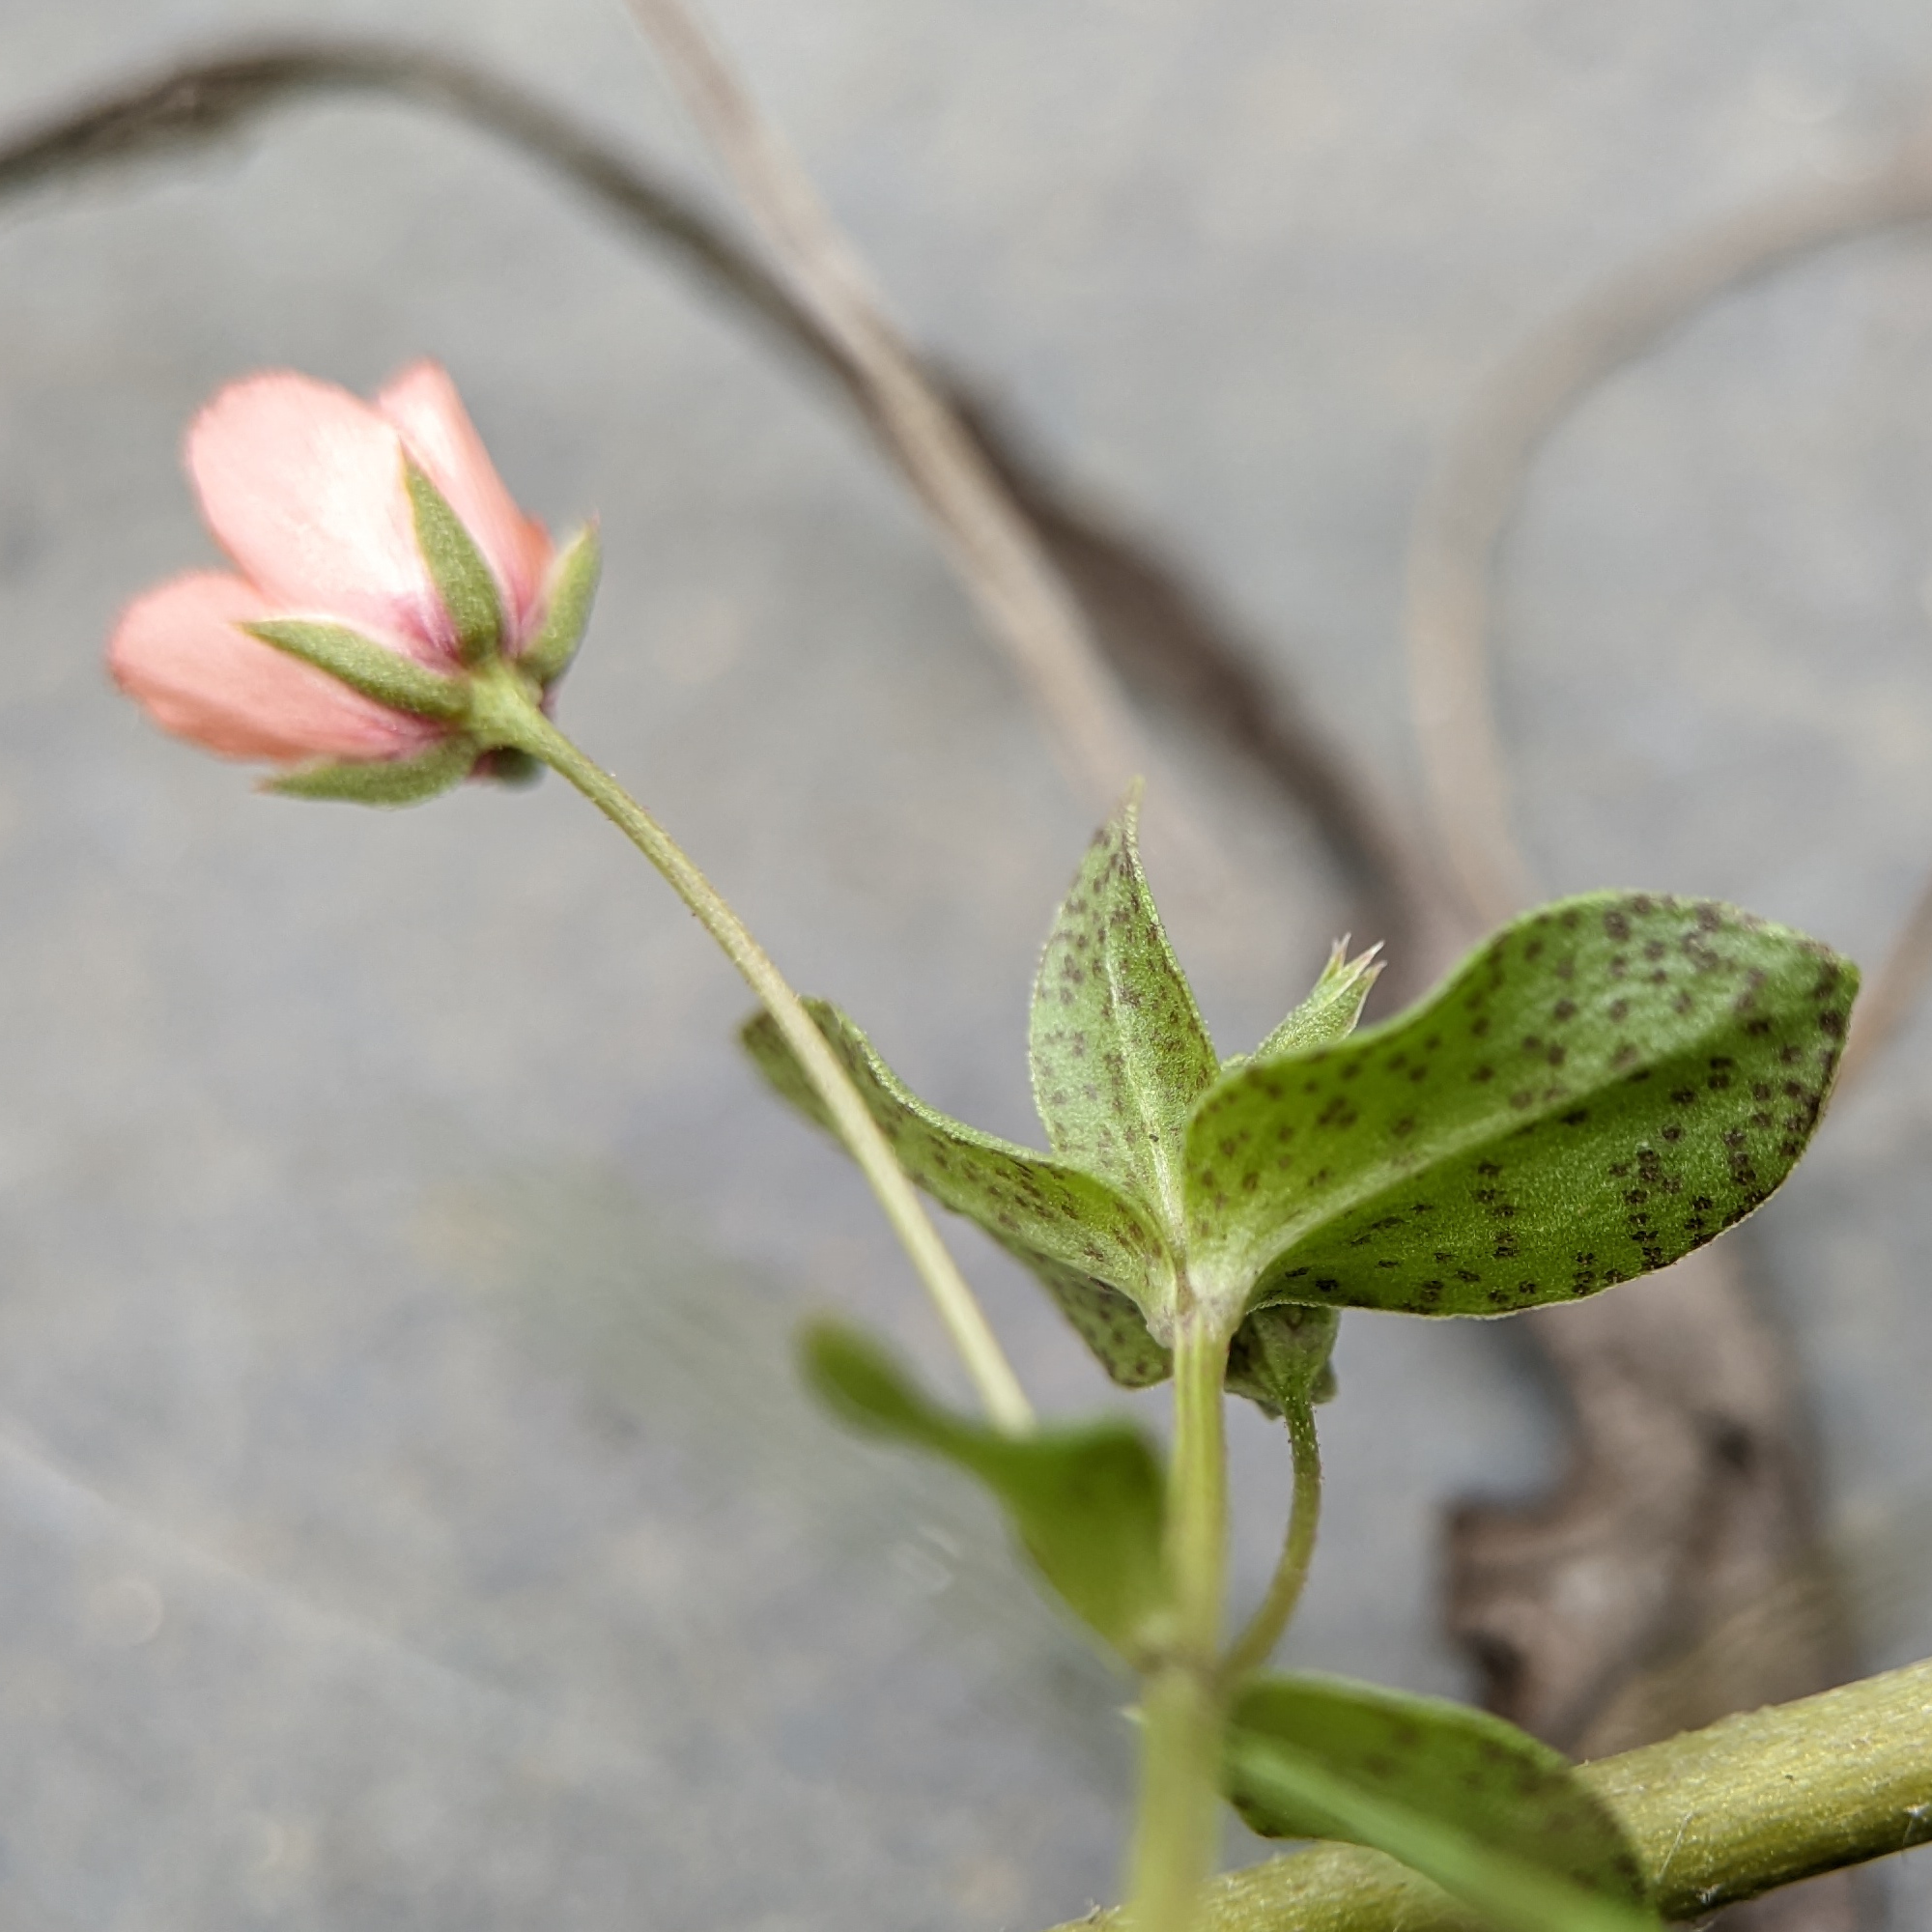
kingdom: Plantae
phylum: Tracheophyta
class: Magnoliopsida
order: Ericales
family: Primulaceae
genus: Lysimachia
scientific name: Lysimachia arvensis
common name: Scarlet pimpernel
